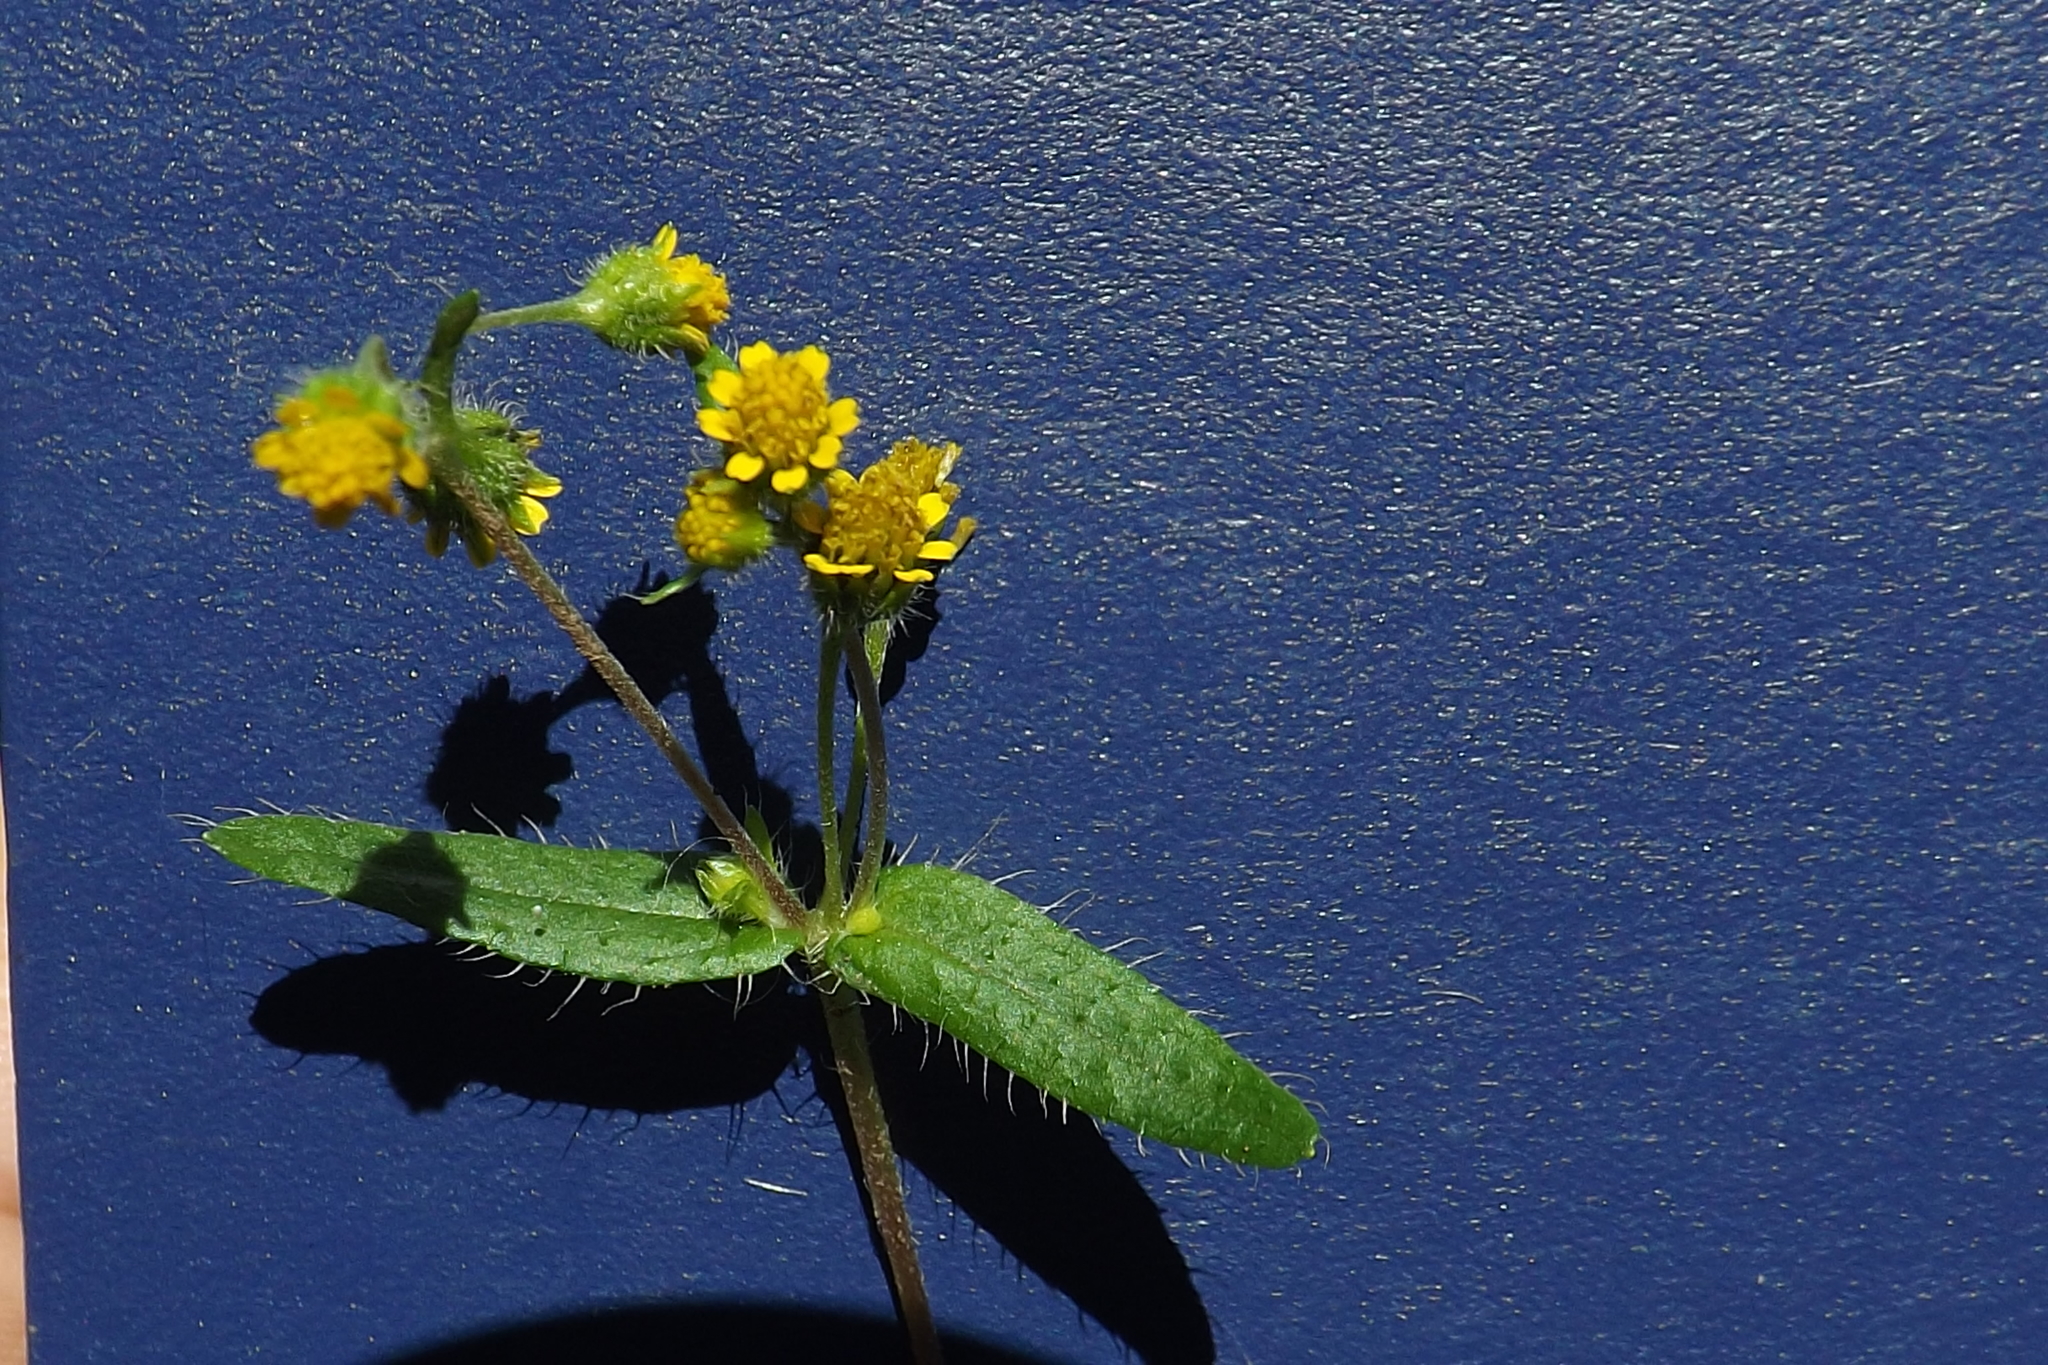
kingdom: Plantae
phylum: Tracheophyta
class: Magnoliopsida
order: Asterales
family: Asteraceae
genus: Jaegeria
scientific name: Jaegeria hirta
